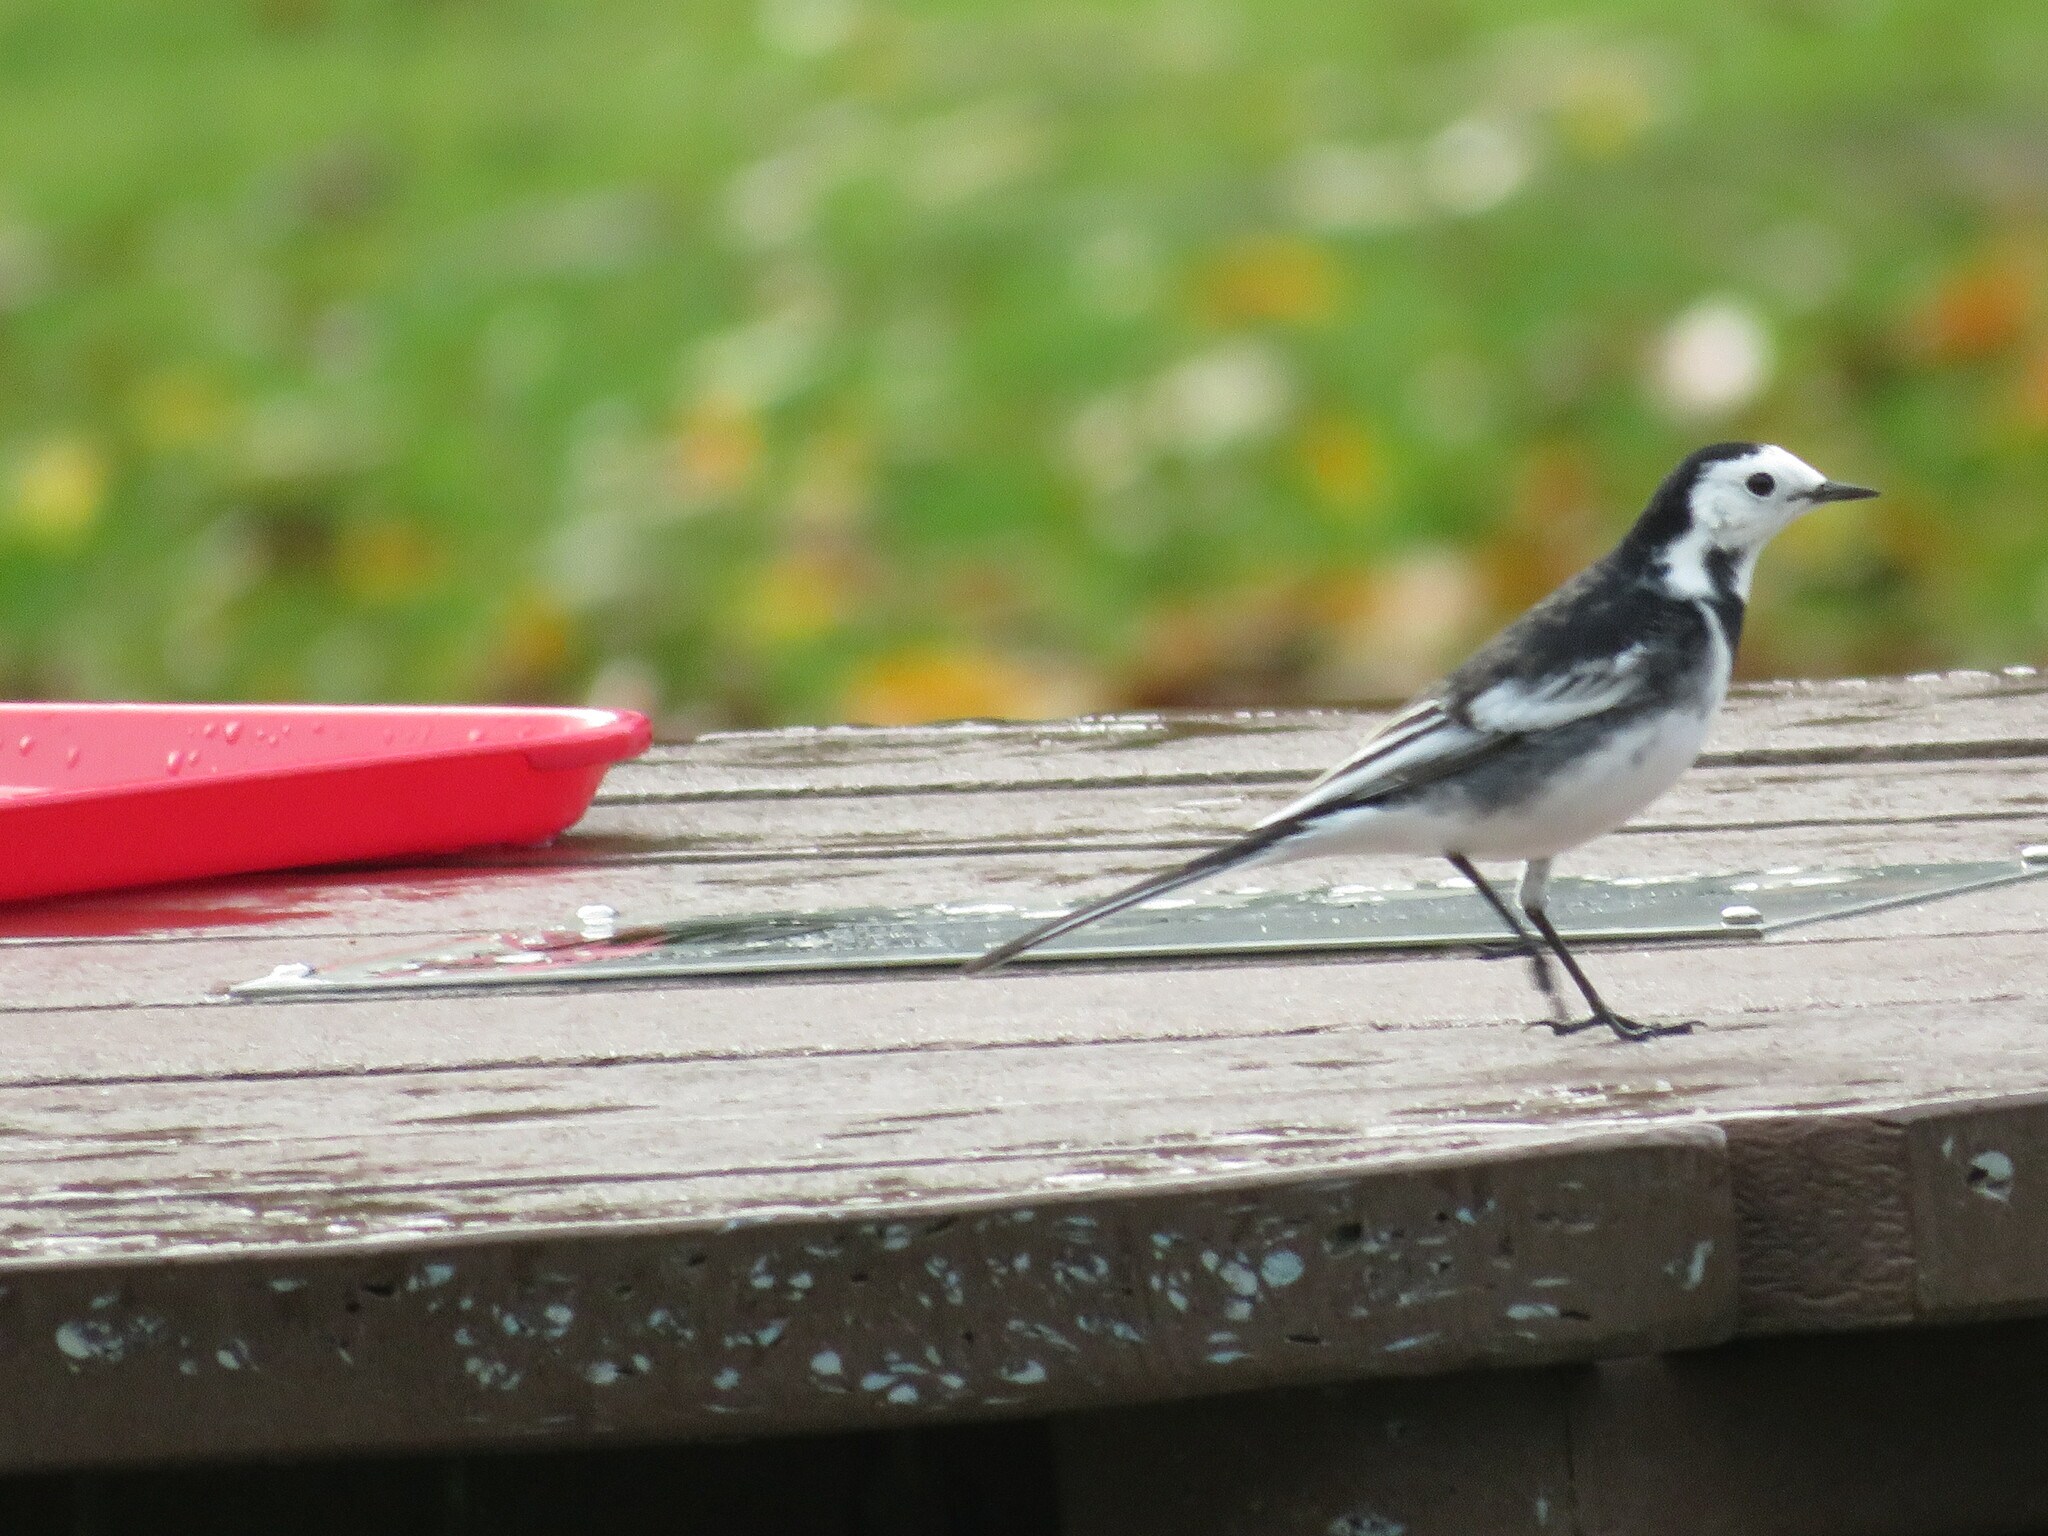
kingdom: Animalia
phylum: Chordata
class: Aves
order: Passeriformes
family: Motacillidae
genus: Motacilla
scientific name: Motacilla alba
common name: White wagtail
